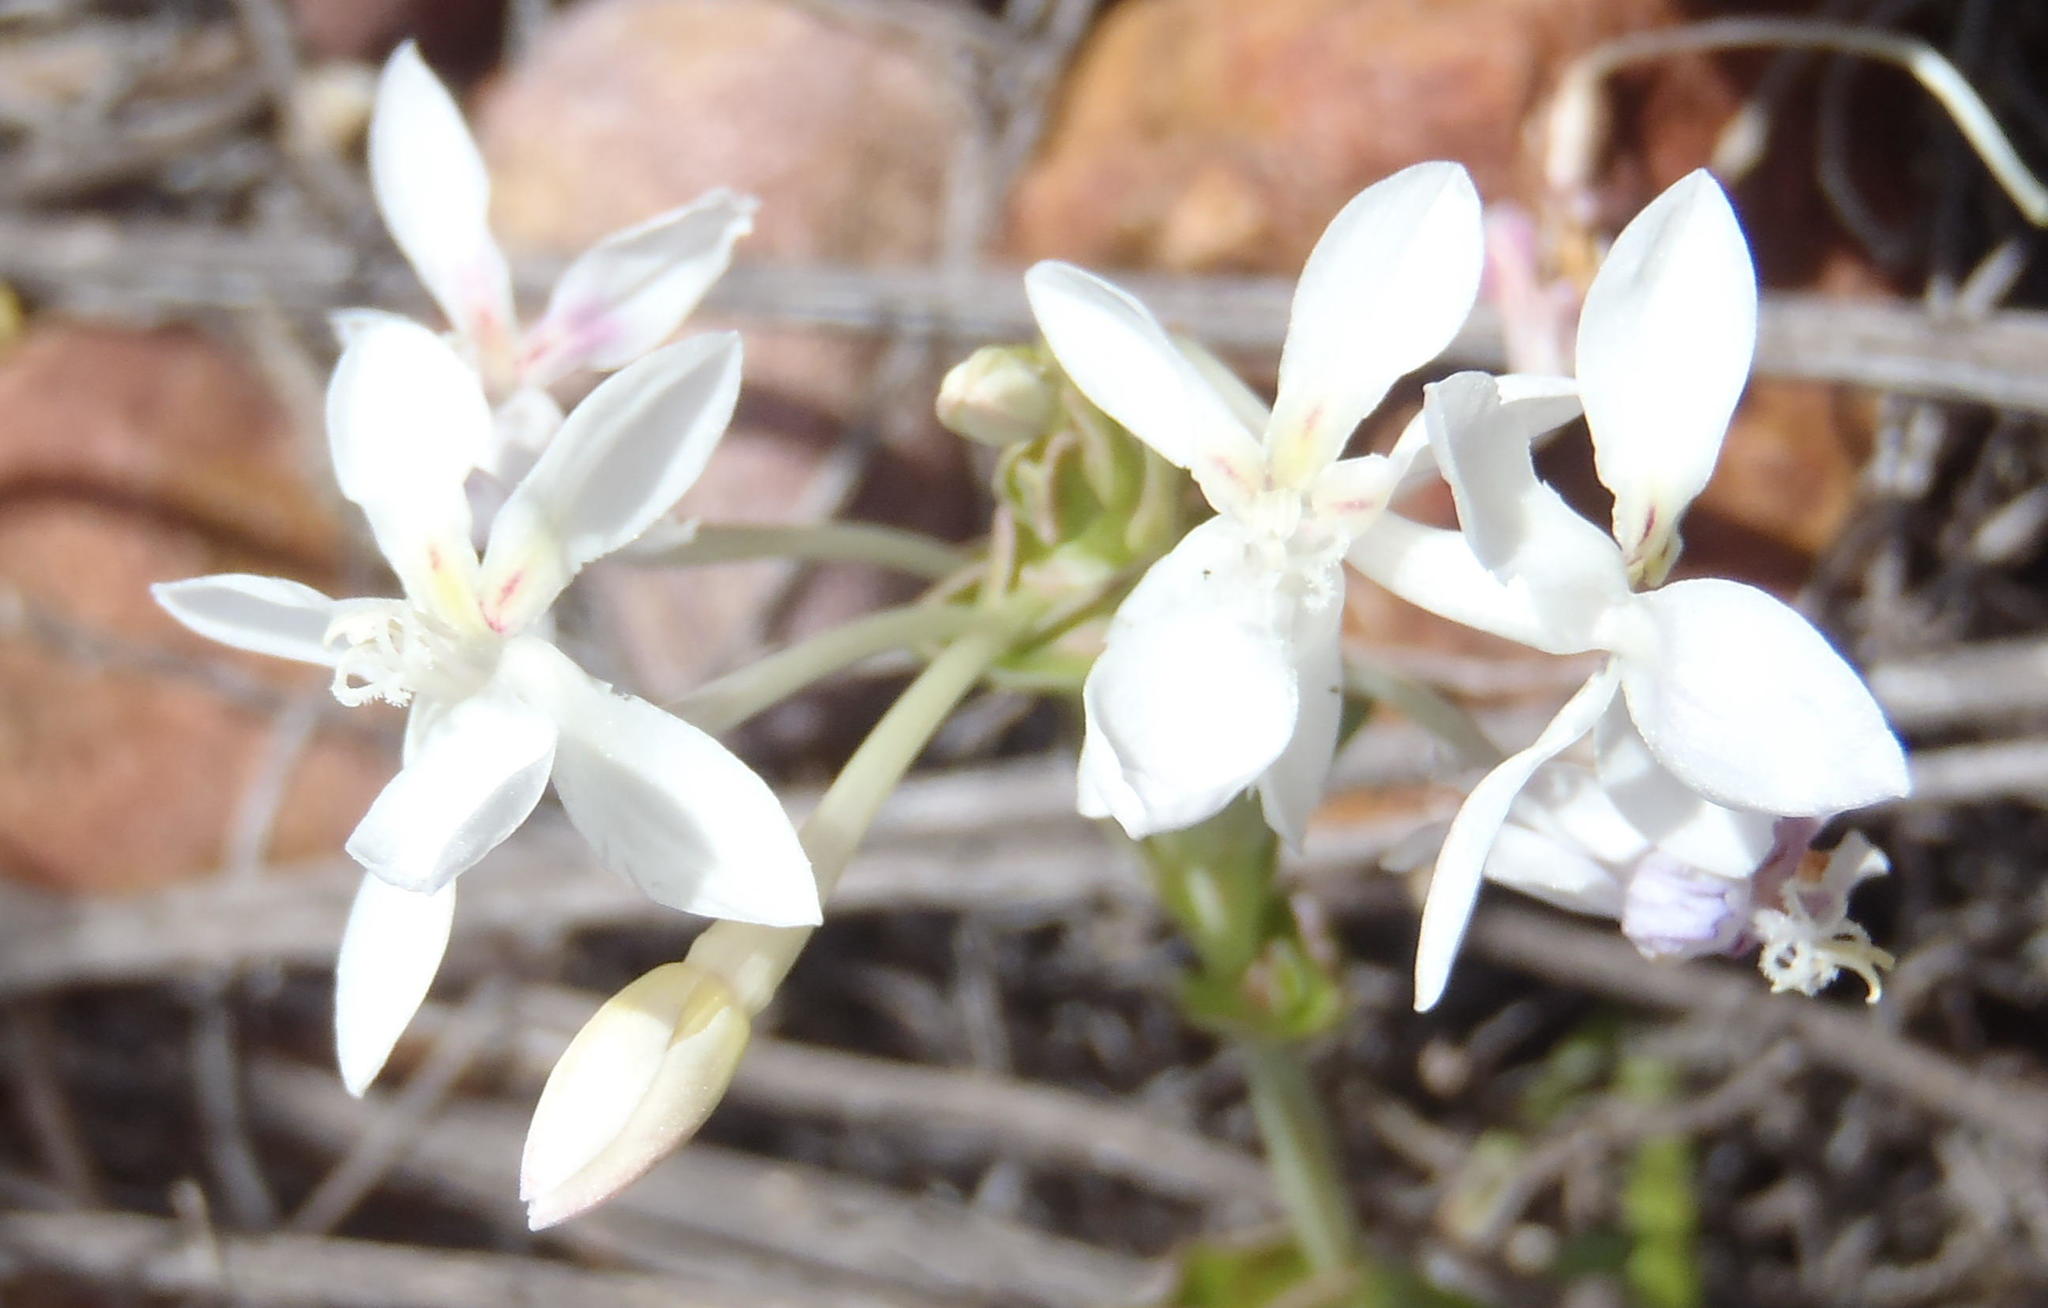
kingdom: Plantae
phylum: Tracheophyta
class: Liliopsida
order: Asparagales
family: Iridaceae
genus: Lapeirousia
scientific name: Lapeirousia pyramidalis
